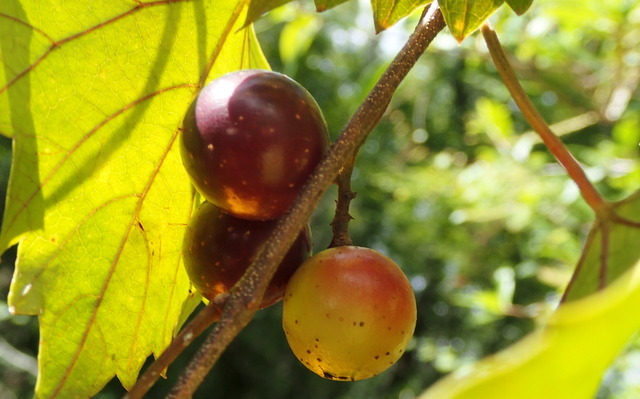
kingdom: Plantae
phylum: Tracheophyta
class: Magnoliopsida
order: Vitales
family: Vitaceae
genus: Vitis
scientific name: Vitis rotundifolia
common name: Muscadine grape
